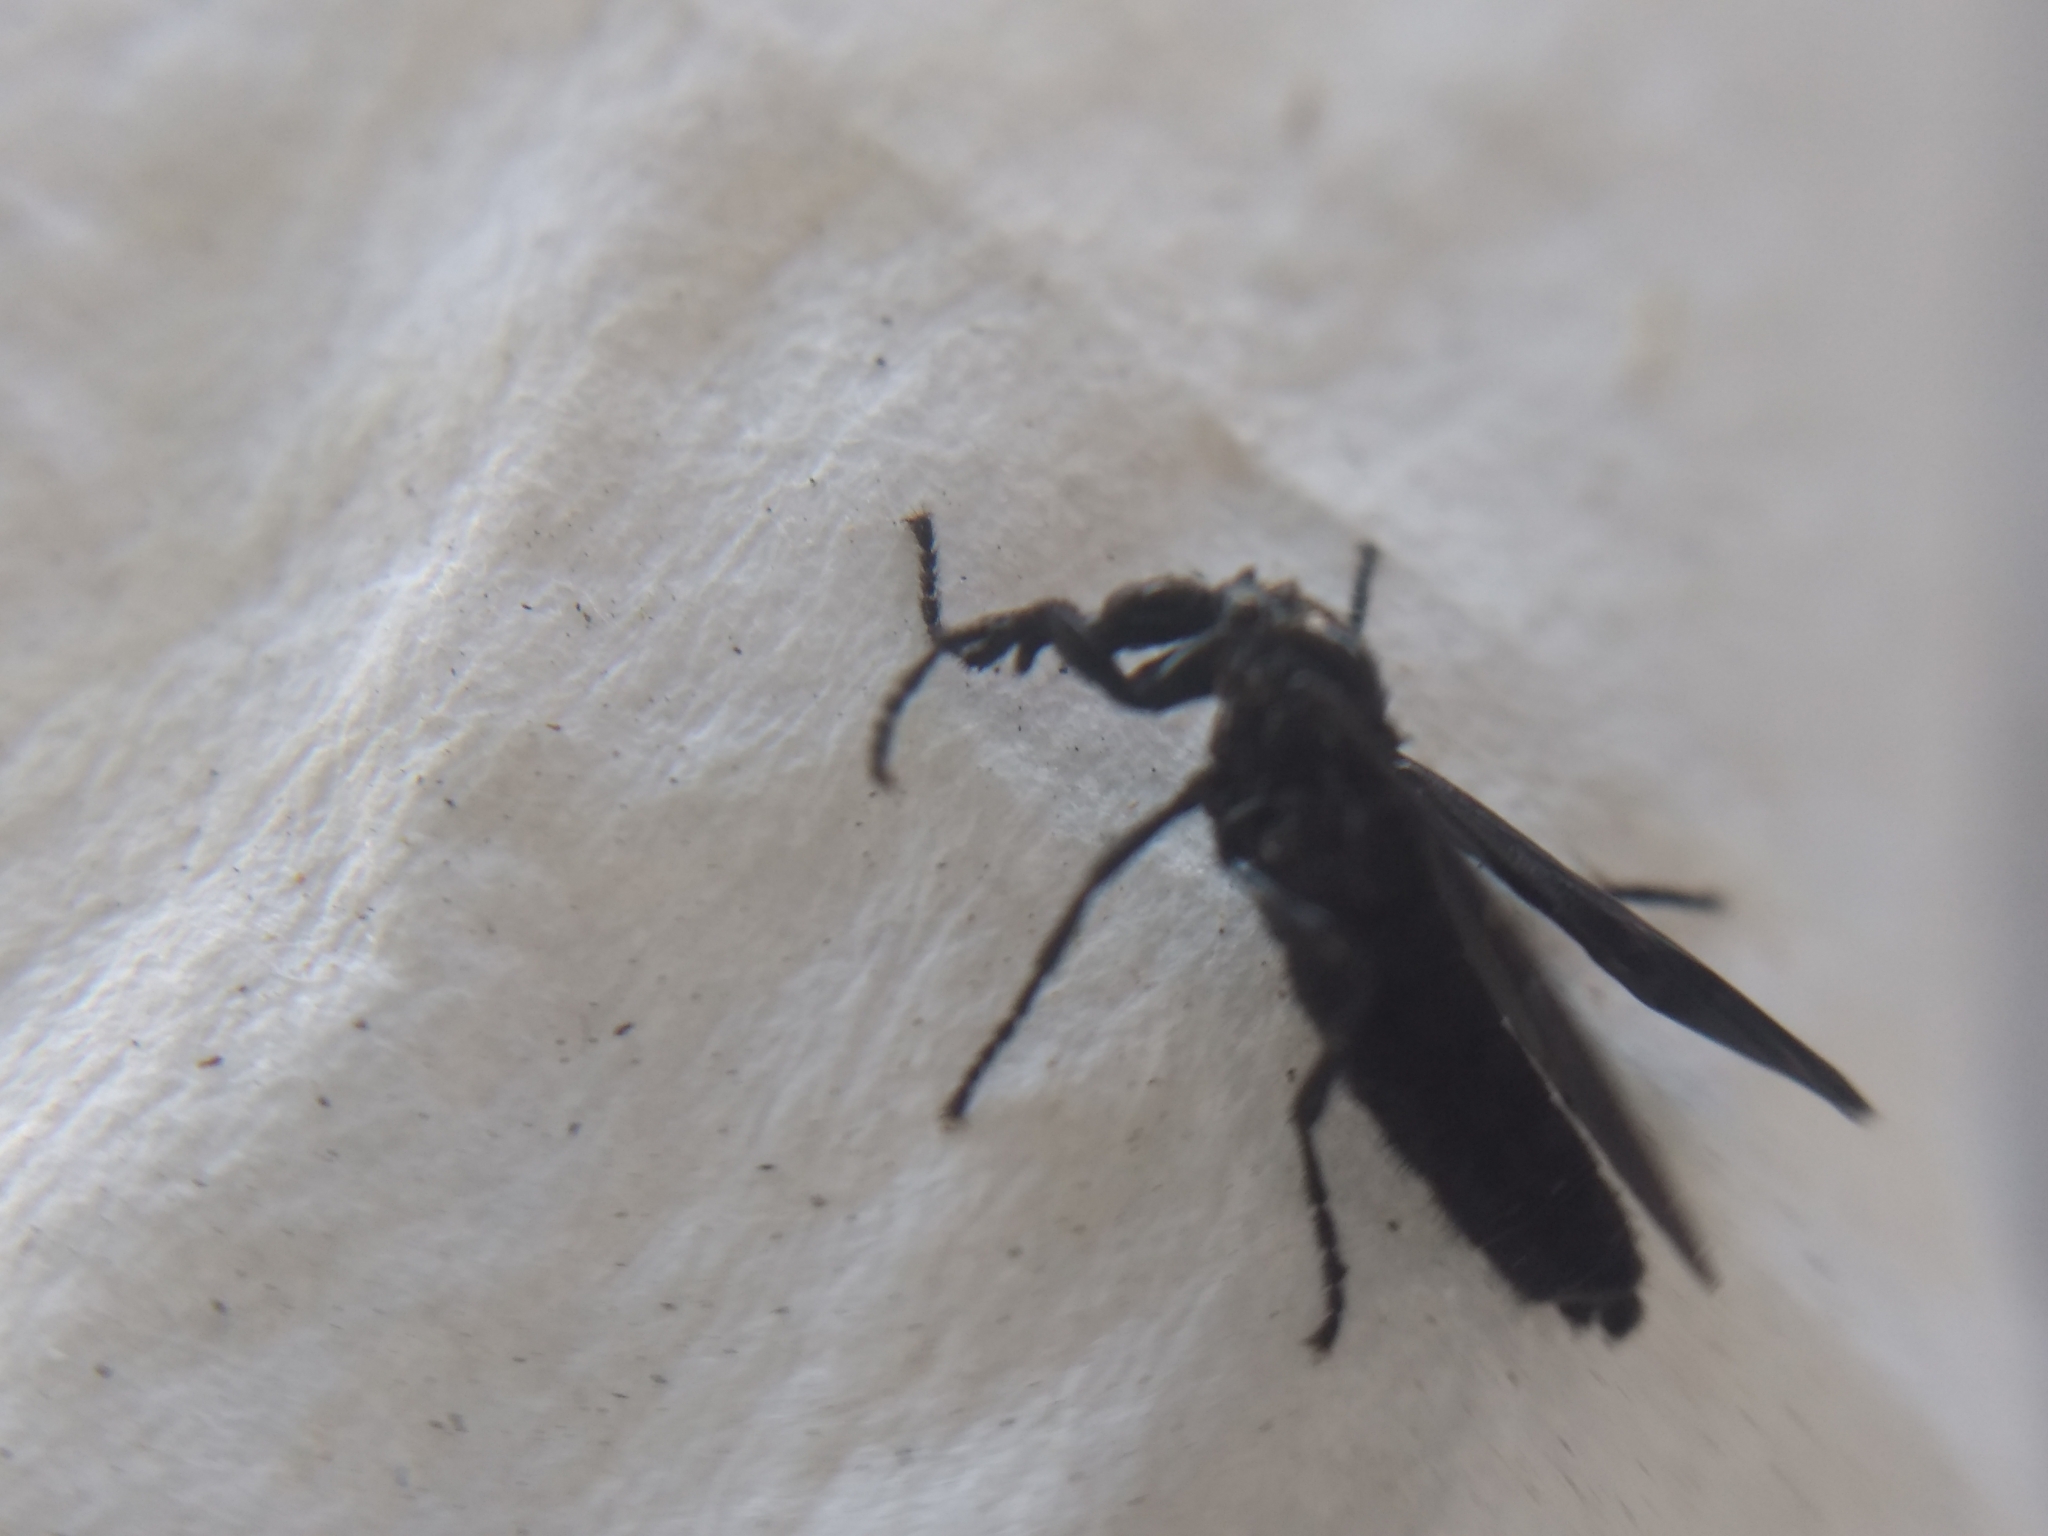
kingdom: Animalia
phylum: Arthropoda
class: Insecta
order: Diptera
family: Bibionidae
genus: Dilophus
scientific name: Dilophus orbatus
